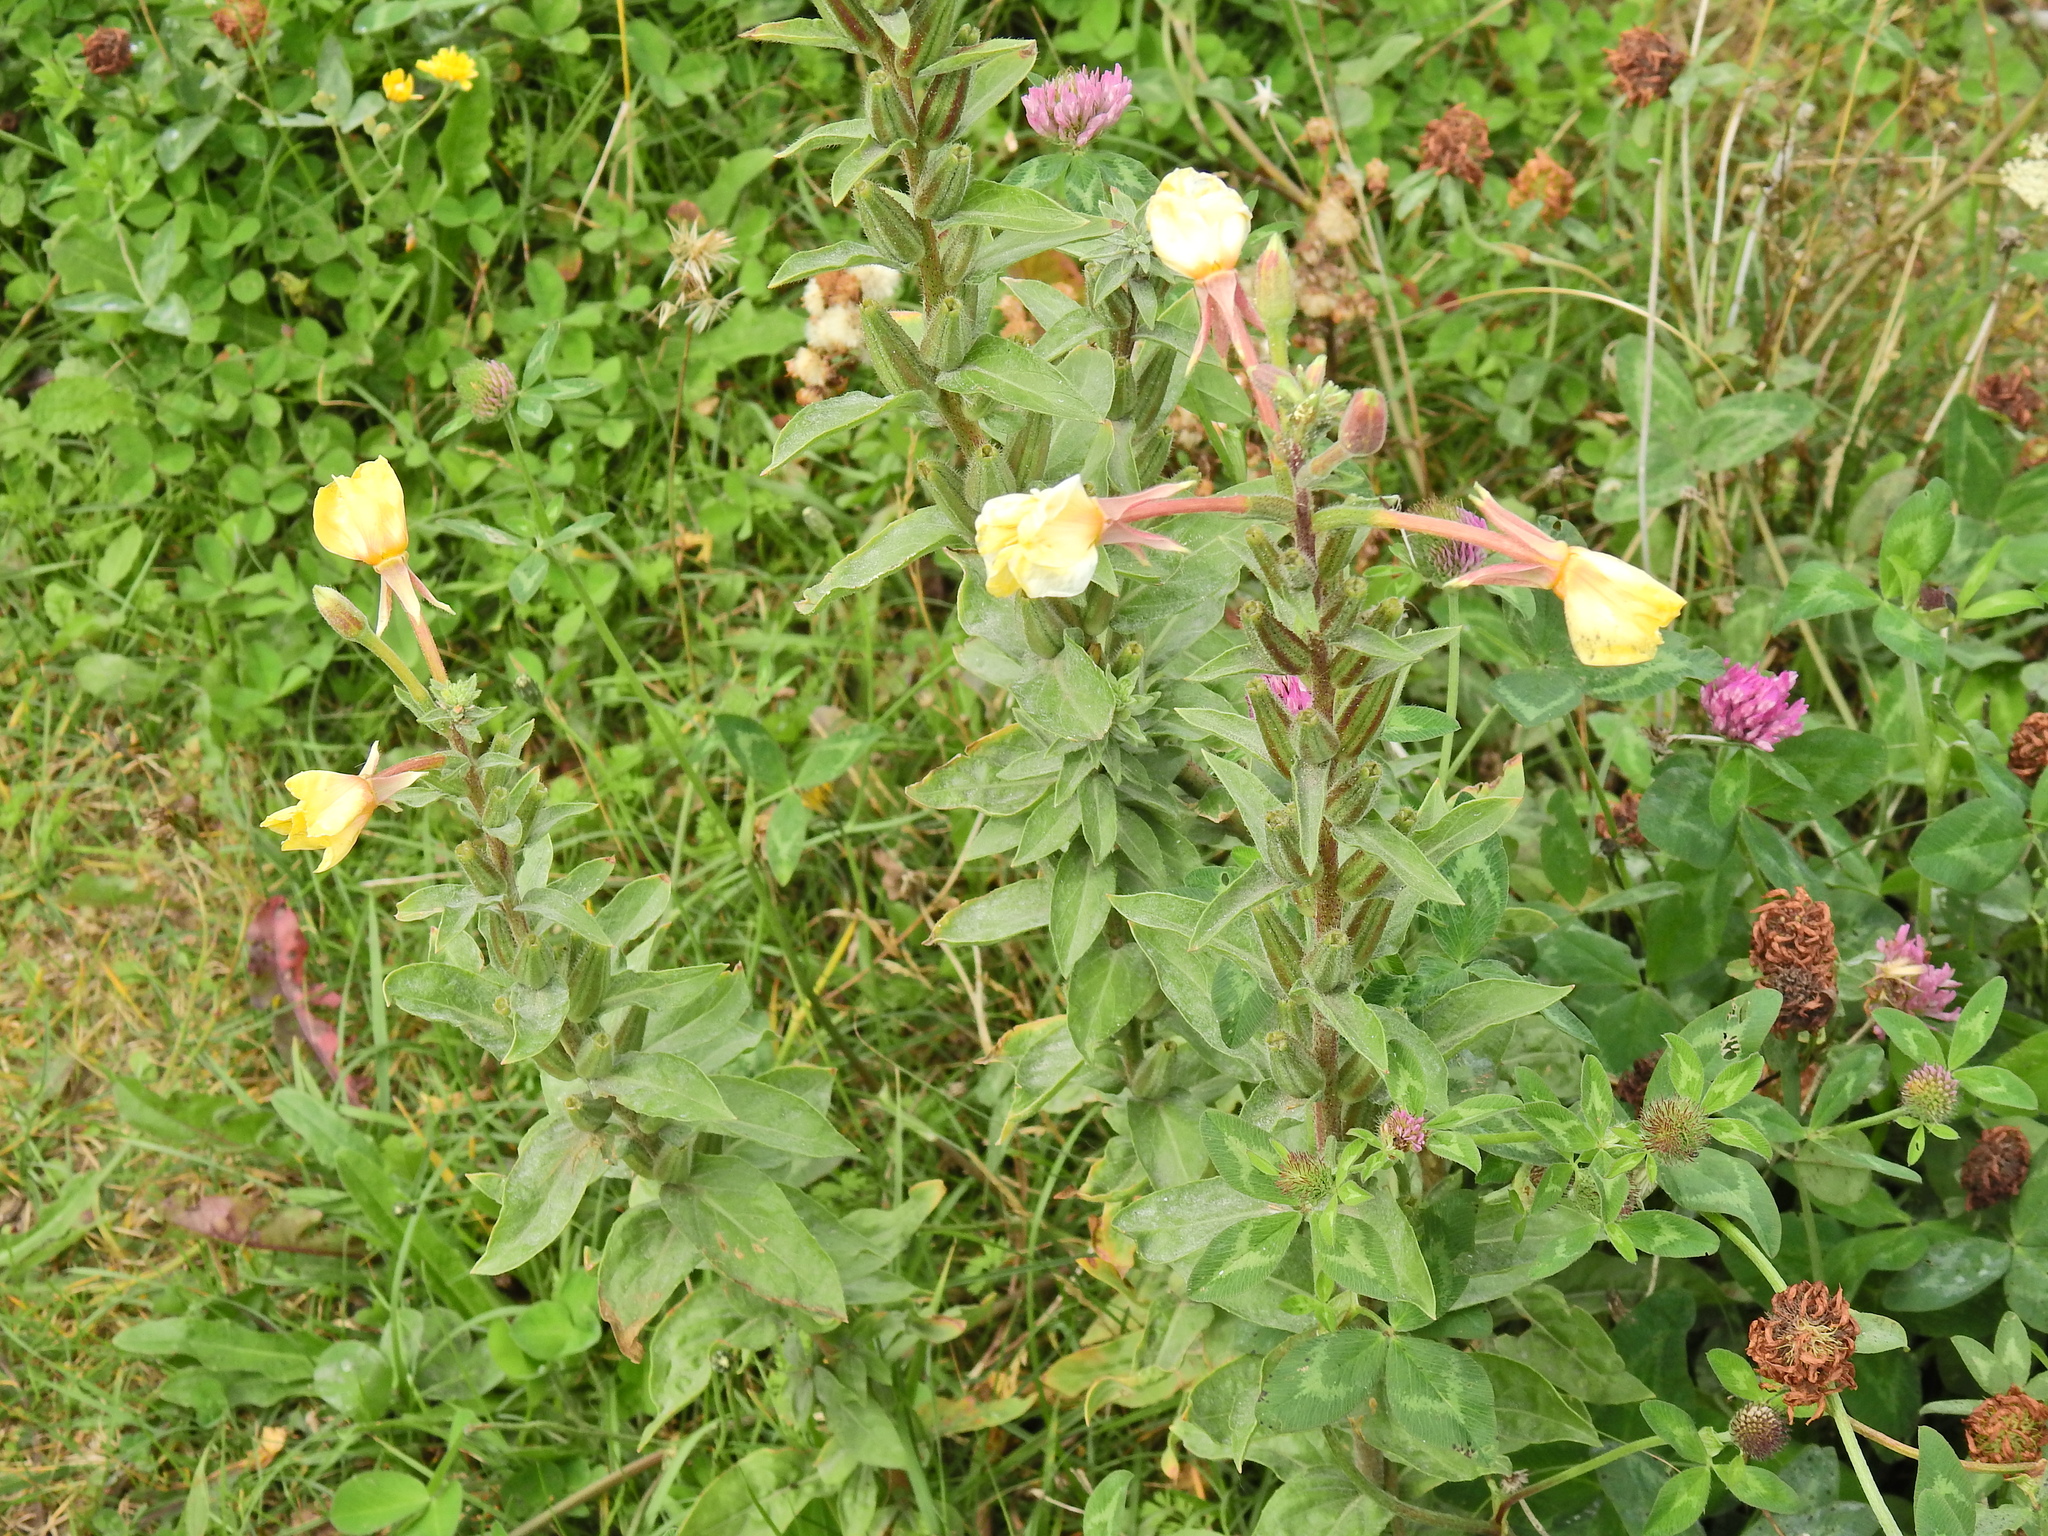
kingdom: Plantae
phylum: Tracheophyta
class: Magnoliopsida
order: Myrtales
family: Onagraceae
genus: Oenothera
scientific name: Oenothera fallax
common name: Intermediate evening-primrose
